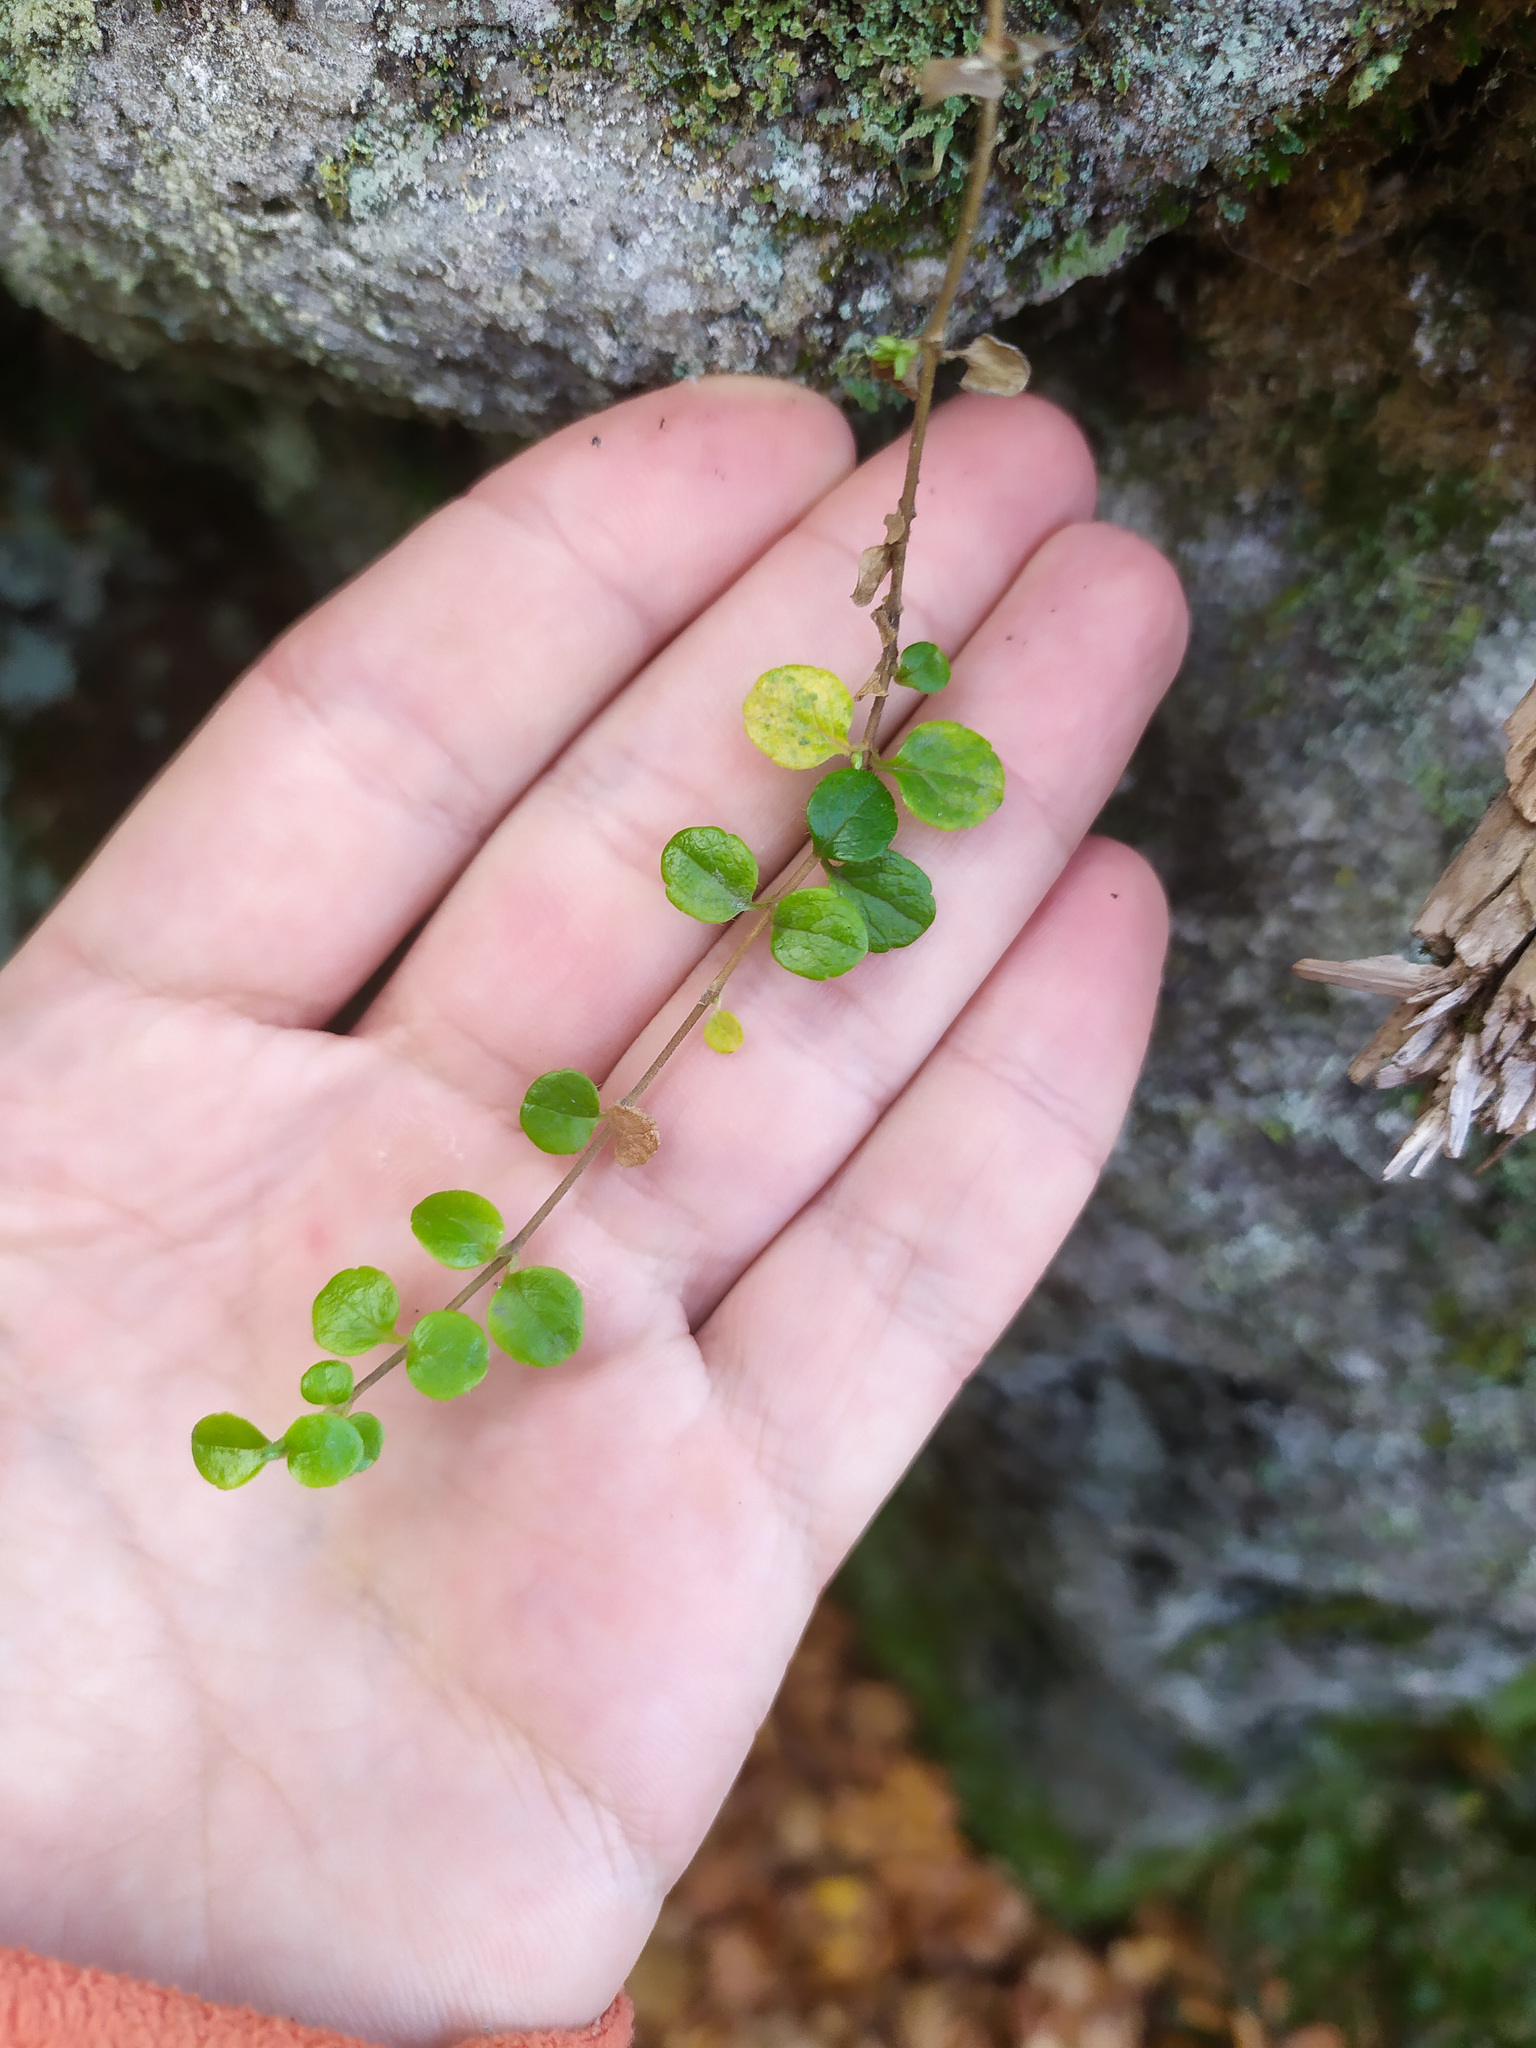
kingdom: Plantae
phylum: Tracheophyta
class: Magnoliopsida
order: Dipsacales
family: Caprifoliaceae
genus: Linnaea
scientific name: Linnaea borealis
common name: Twinflower
